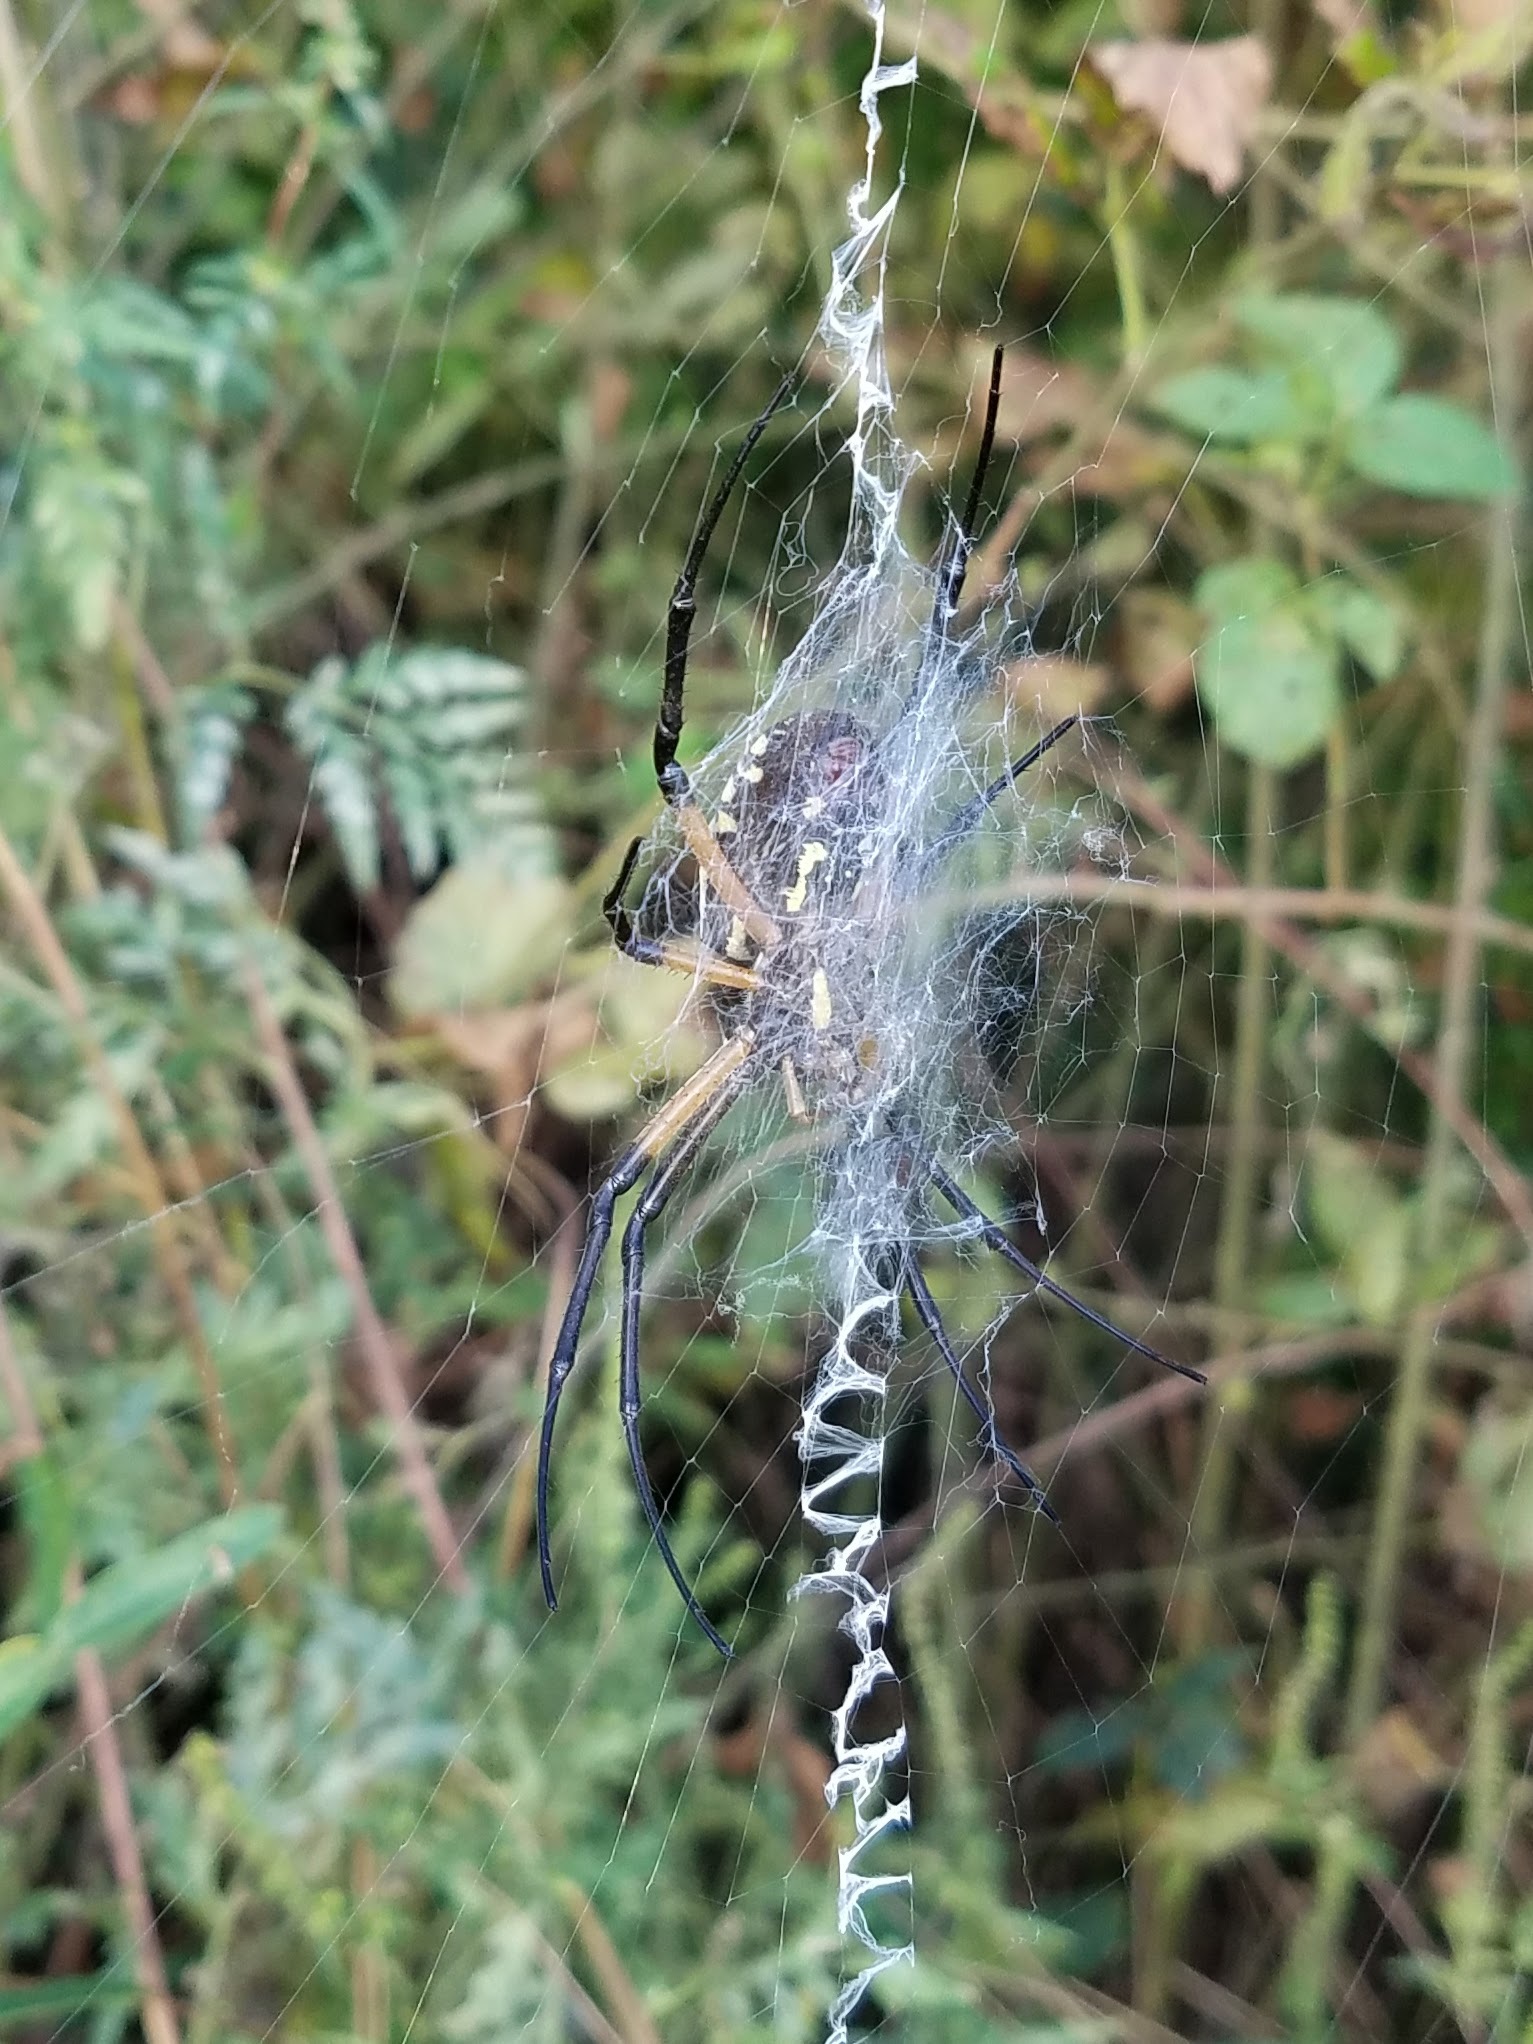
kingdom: Animalia
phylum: Arthropoda
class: Arachnida
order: Araneae
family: Araneidae
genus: Argiope
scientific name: Argiope aurantia
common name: Orb weavers
